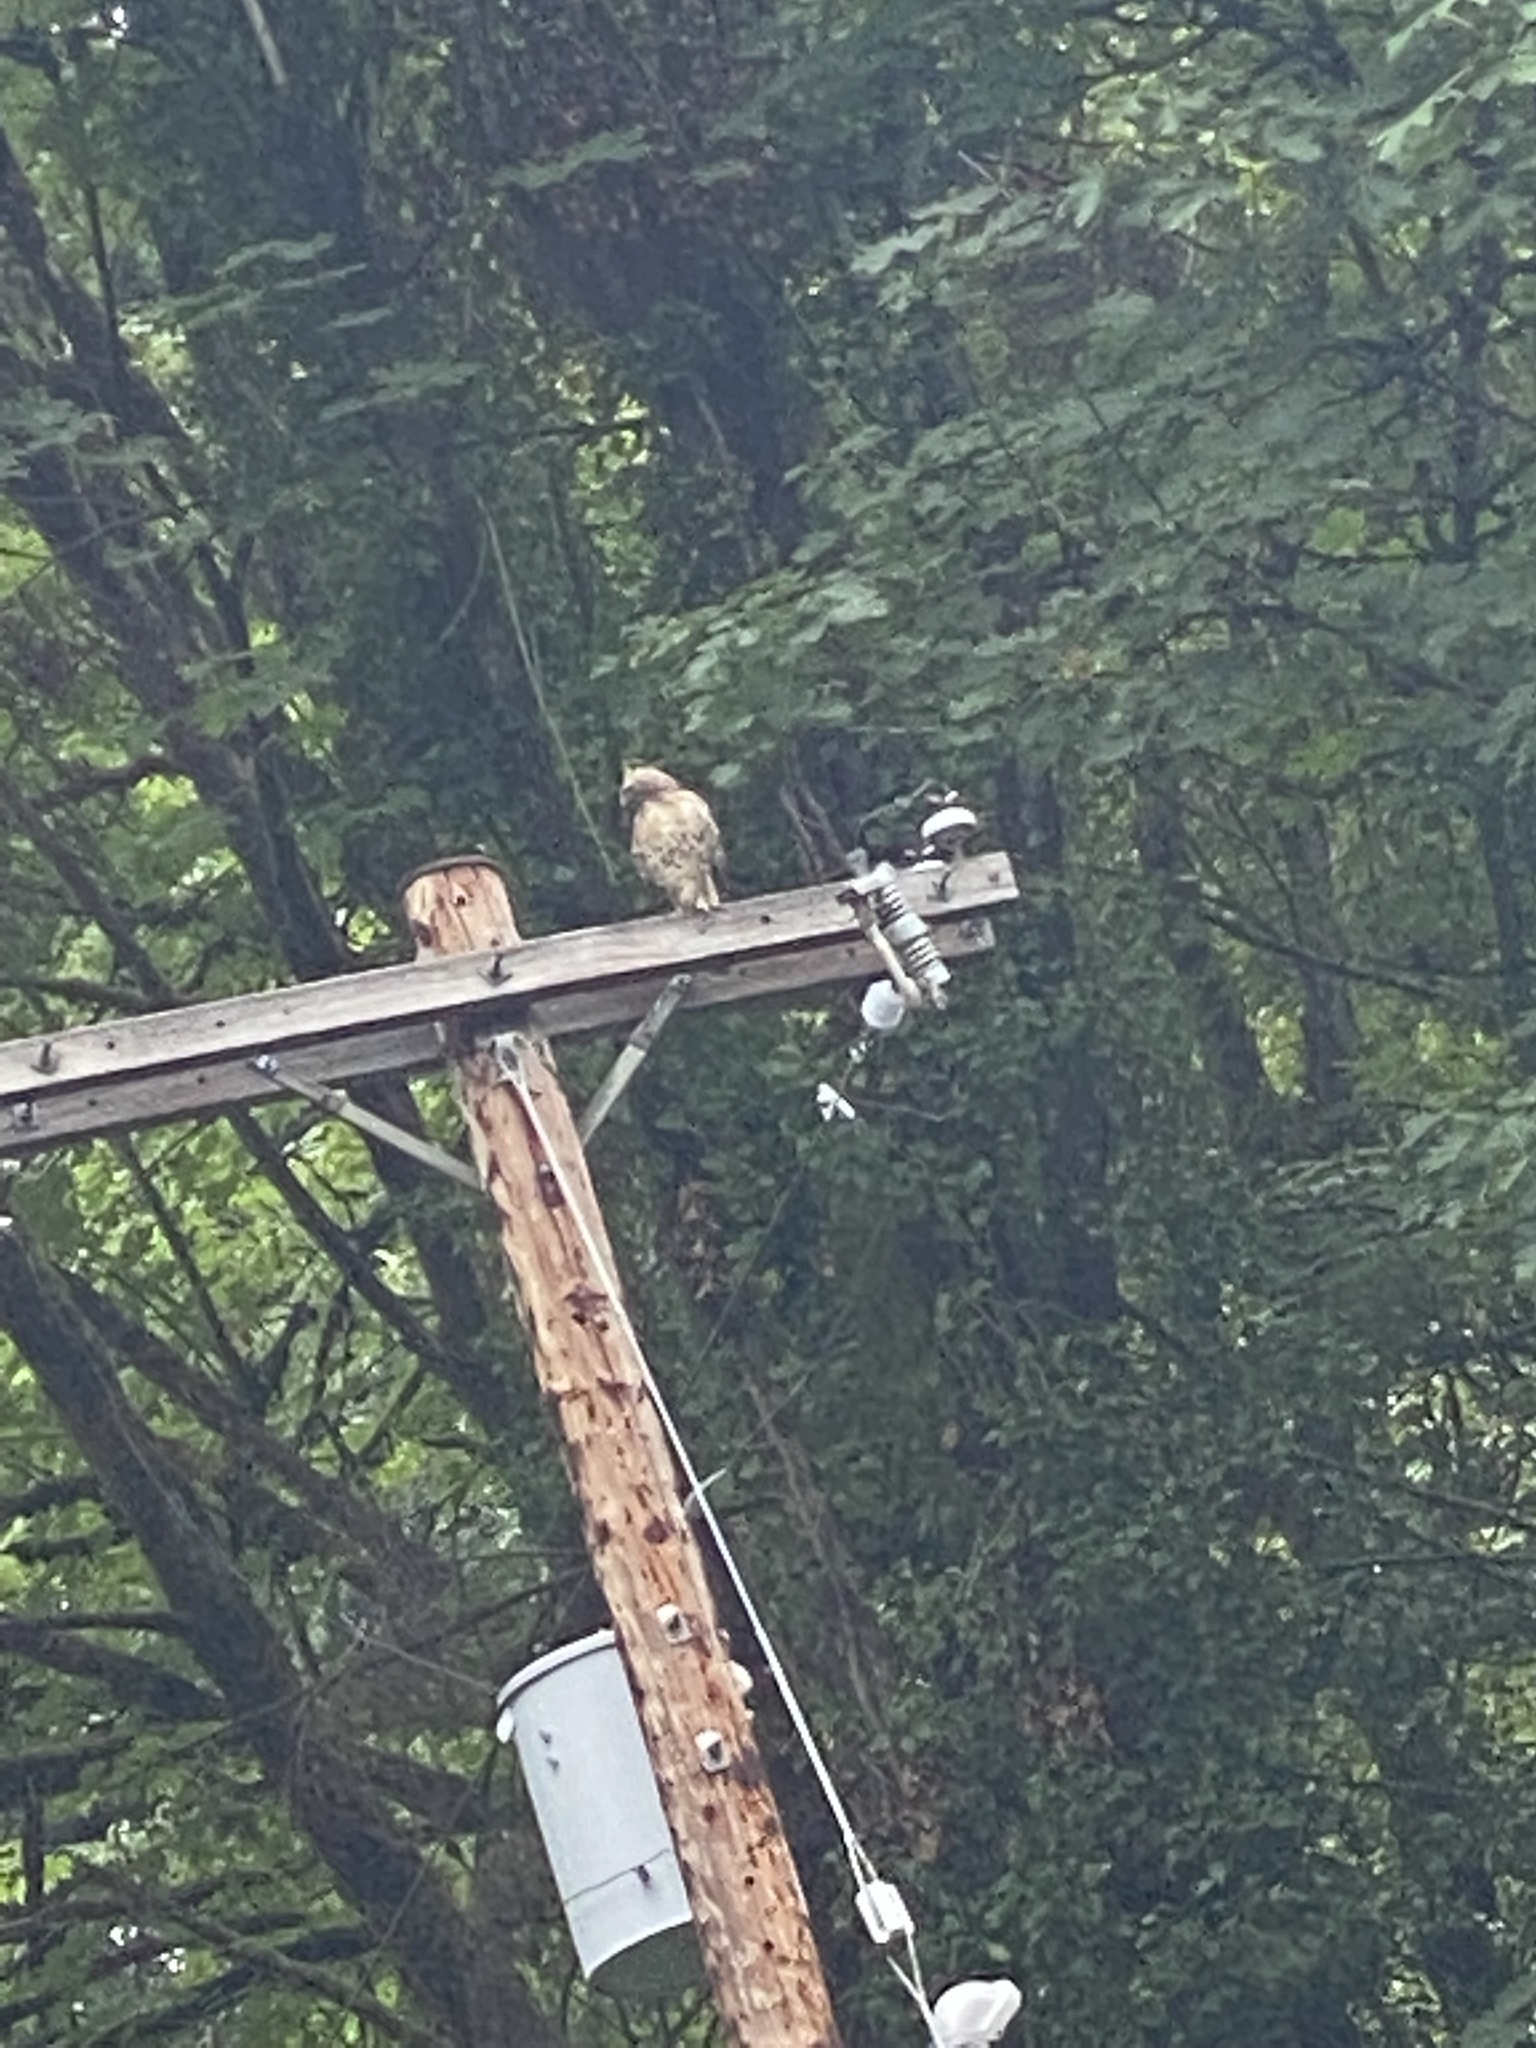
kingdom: Animalia
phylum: Chordata
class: Aves
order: Accipitriformes
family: Accipitridae
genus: Buteo
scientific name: Buteo jamaicensis
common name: Red-tailed hawk
